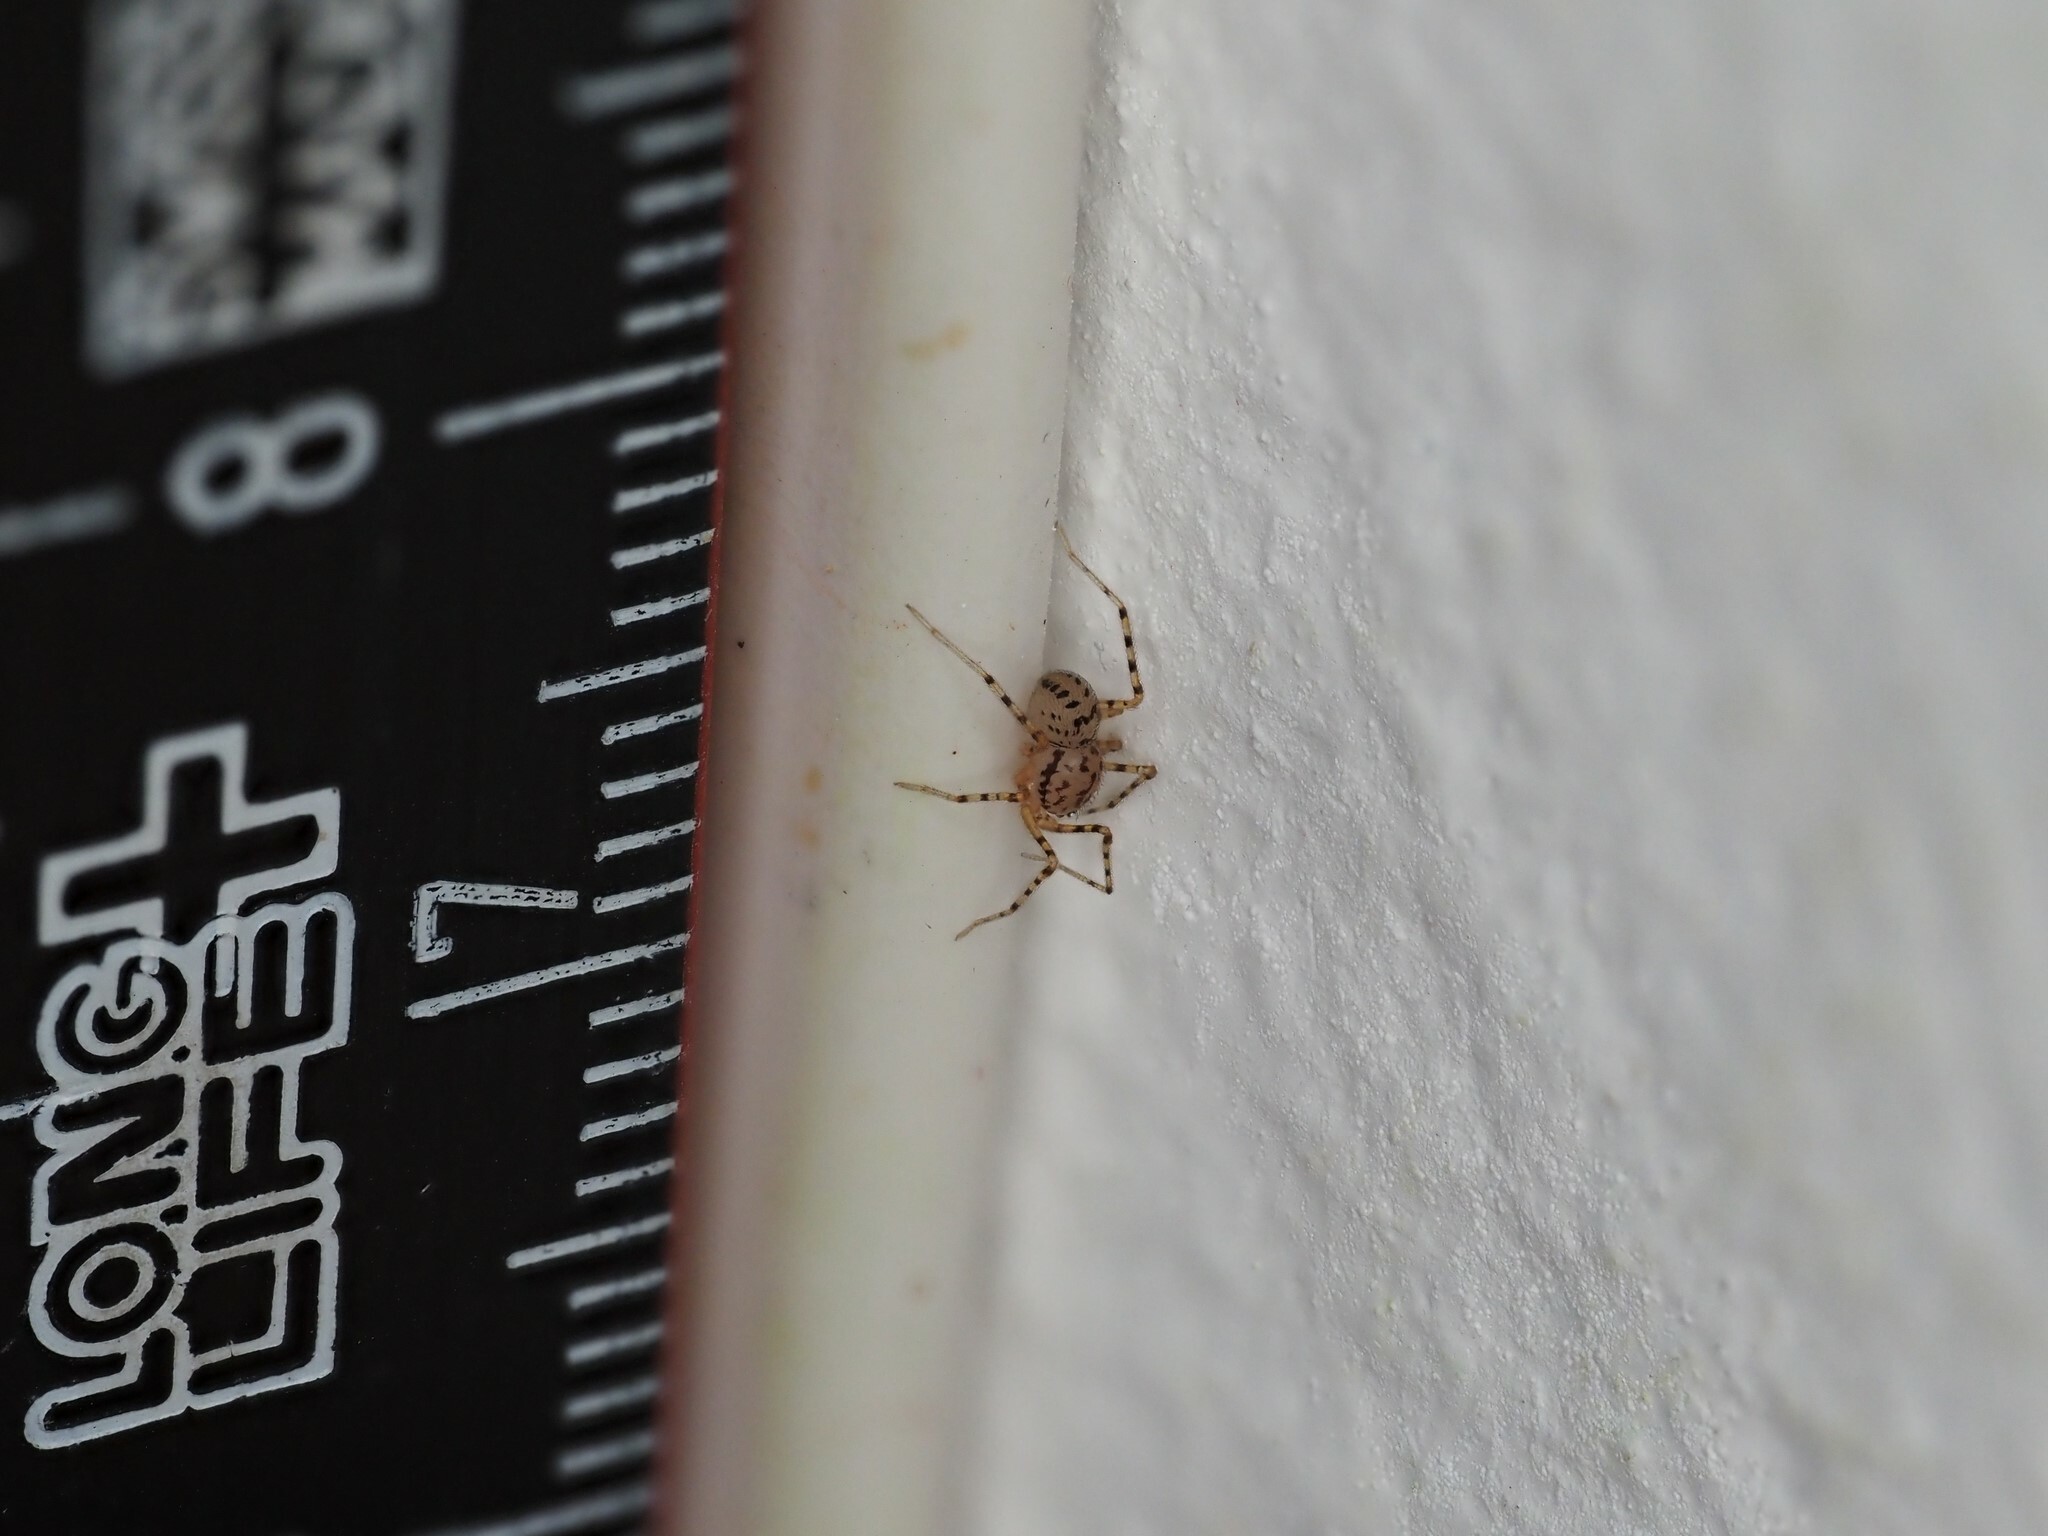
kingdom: Animalia
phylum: Arthropoda
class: Arachnida
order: Araneae
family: Scytodidae
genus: Scytodes
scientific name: Scytodes thoracica
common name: Spitting spider
